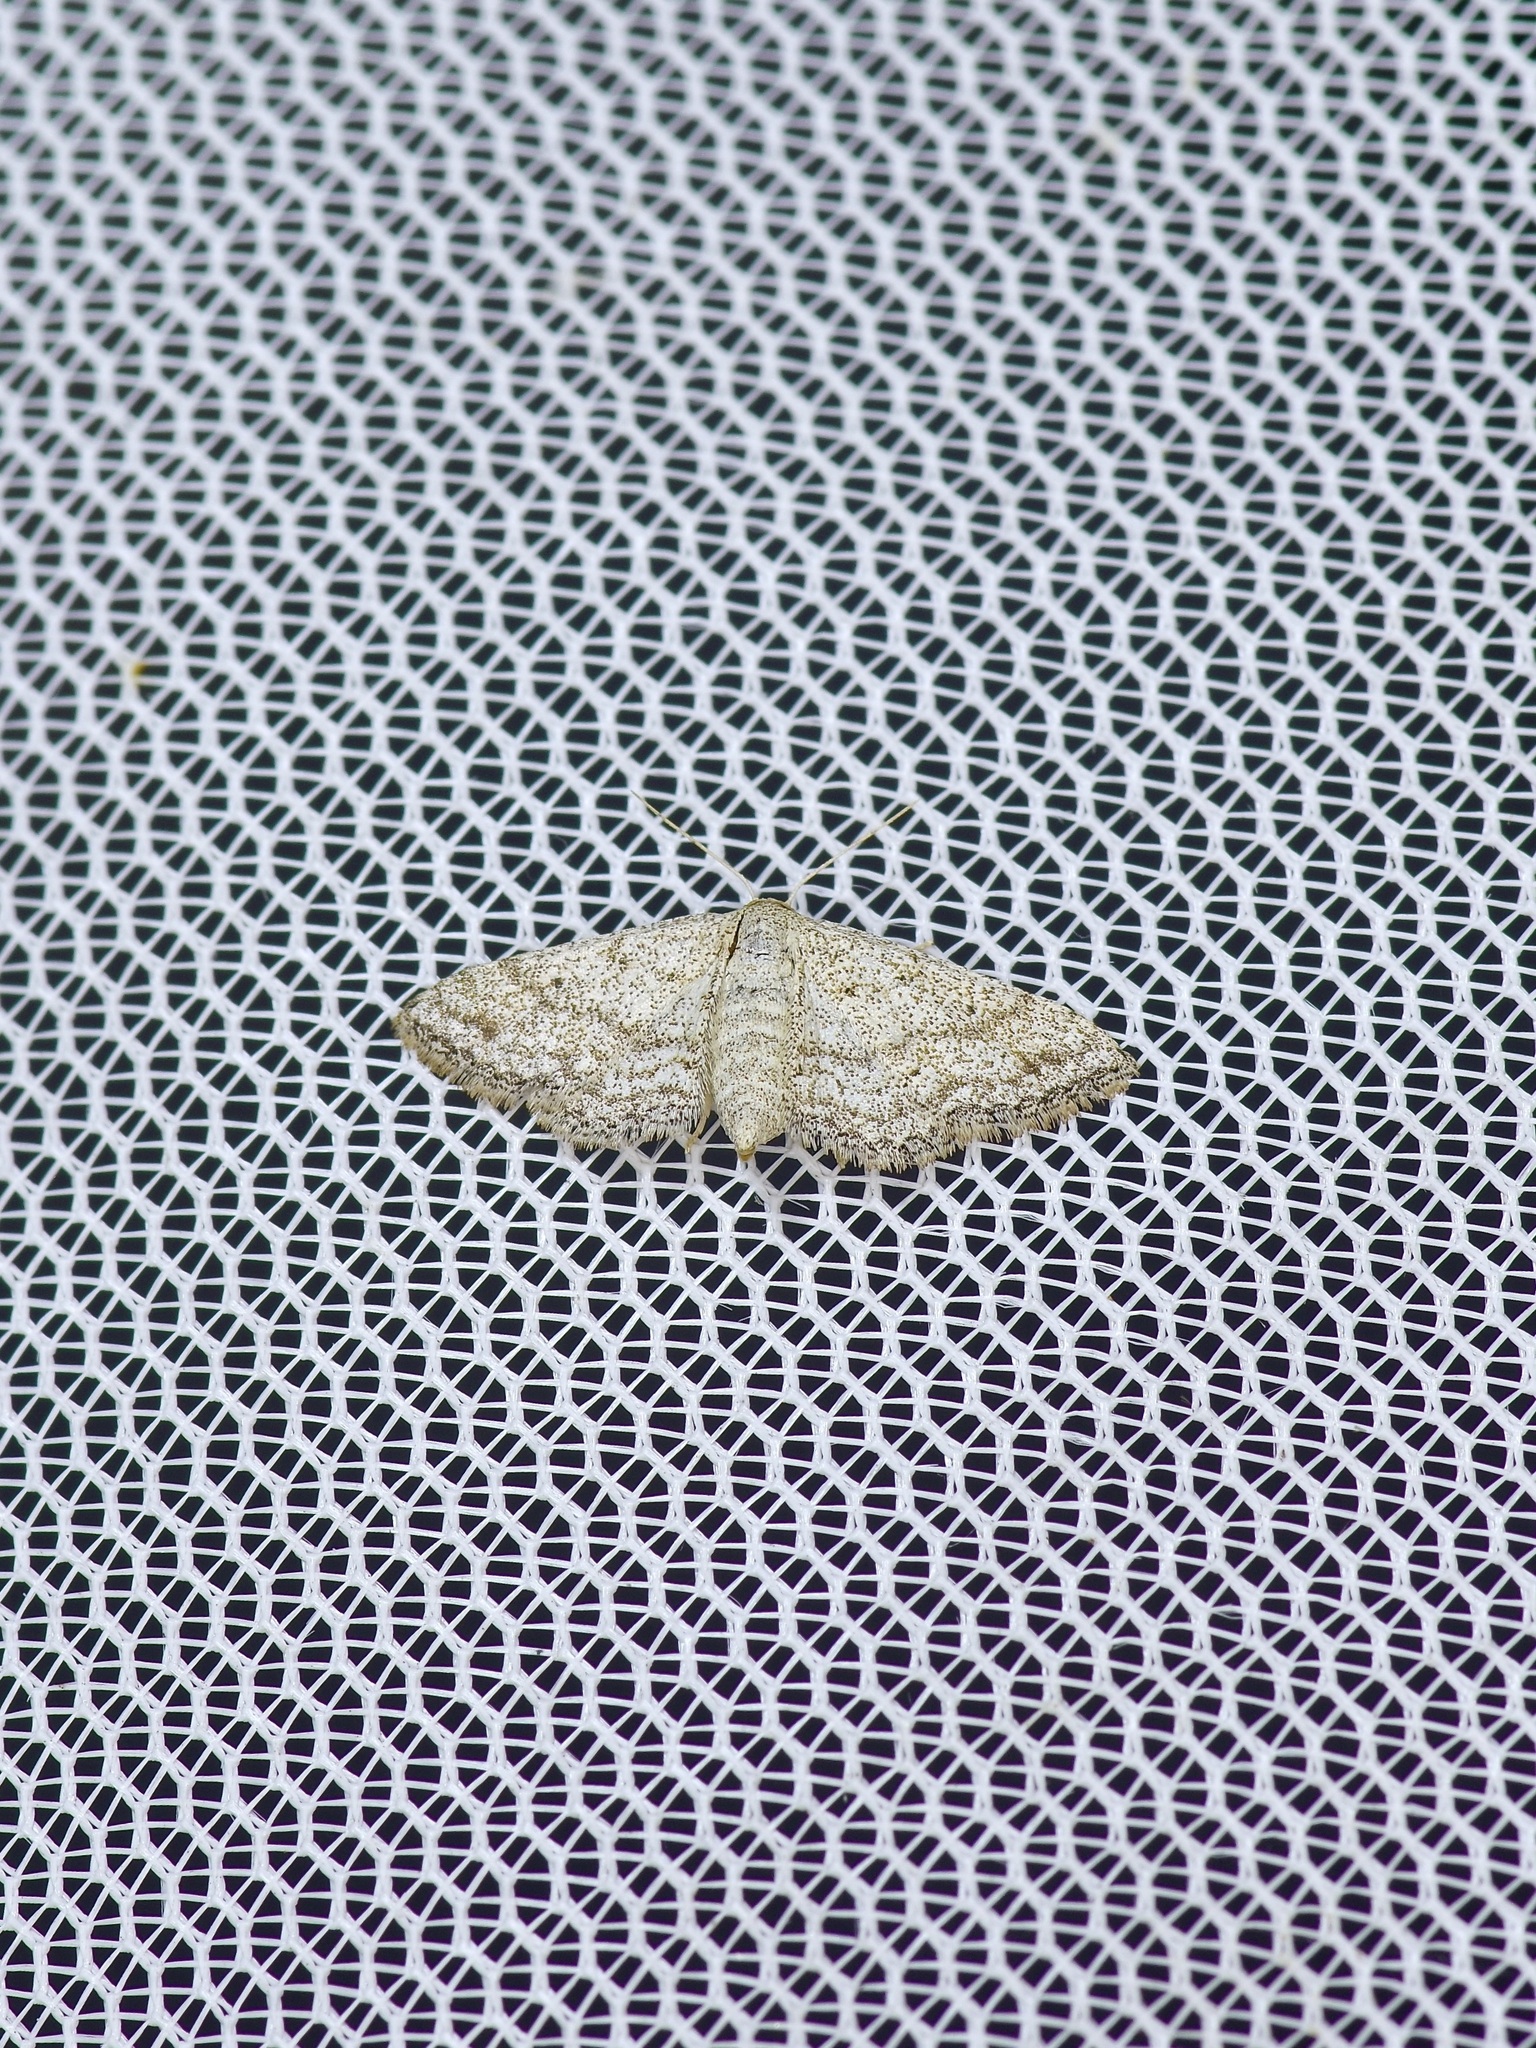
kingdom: Animalia
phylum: Arthropoda
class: Insecta
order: Lepidoptera
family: Geometridae
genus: Lobocleta
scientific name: Lobocleta ossularia
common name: Drab brown wave
